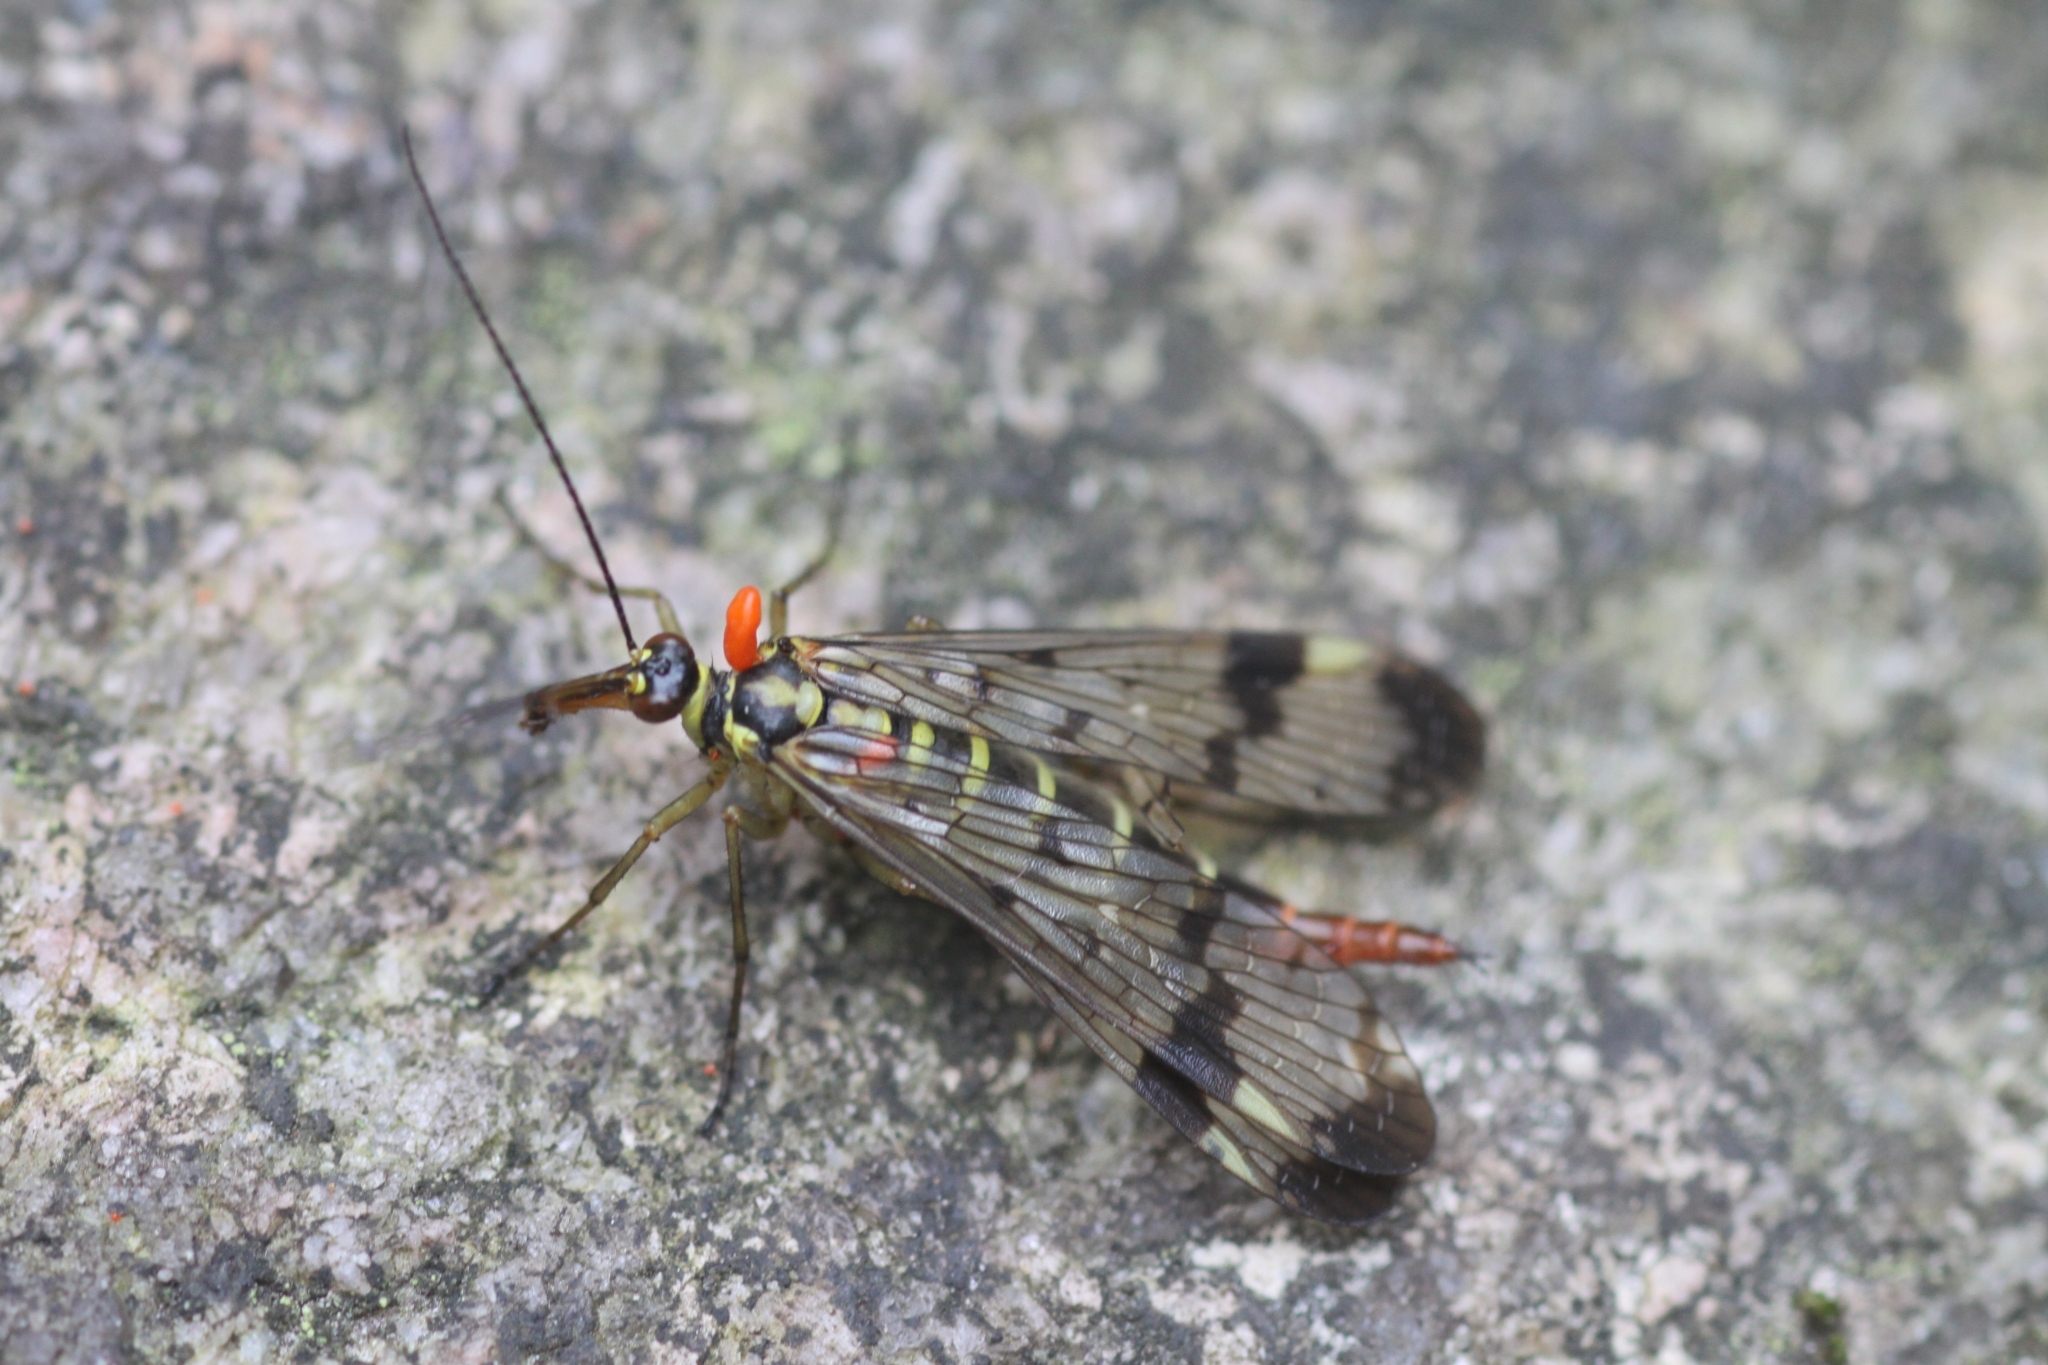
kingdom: Animalia
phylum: Arthropoda
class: Insecta
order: Mecoptera
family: Panorpidae
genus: Panorpa
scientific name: Panorpa communis
